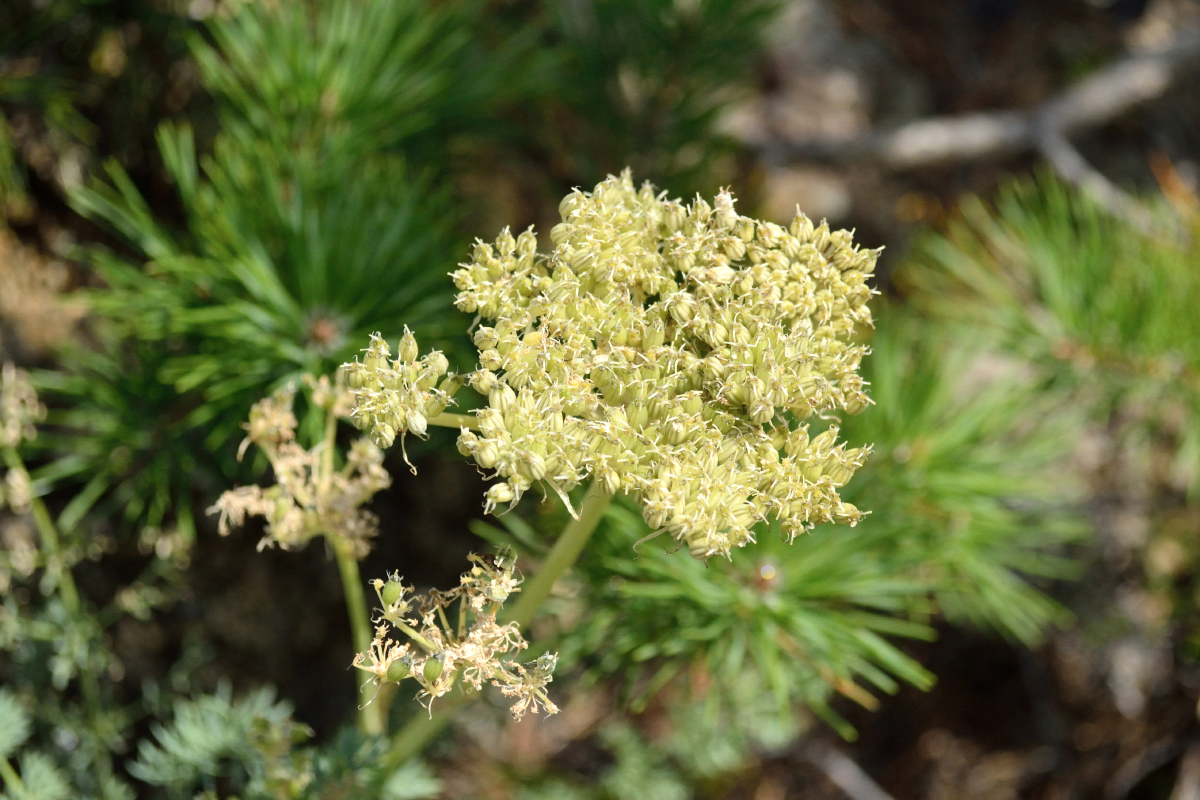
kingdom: Plantae
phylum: Tracheophyta
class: Magnoliopsida
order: Apiales
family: Apiaceae
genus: Phlojodicarpus
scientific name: Phlojodicarpus sibiricus
